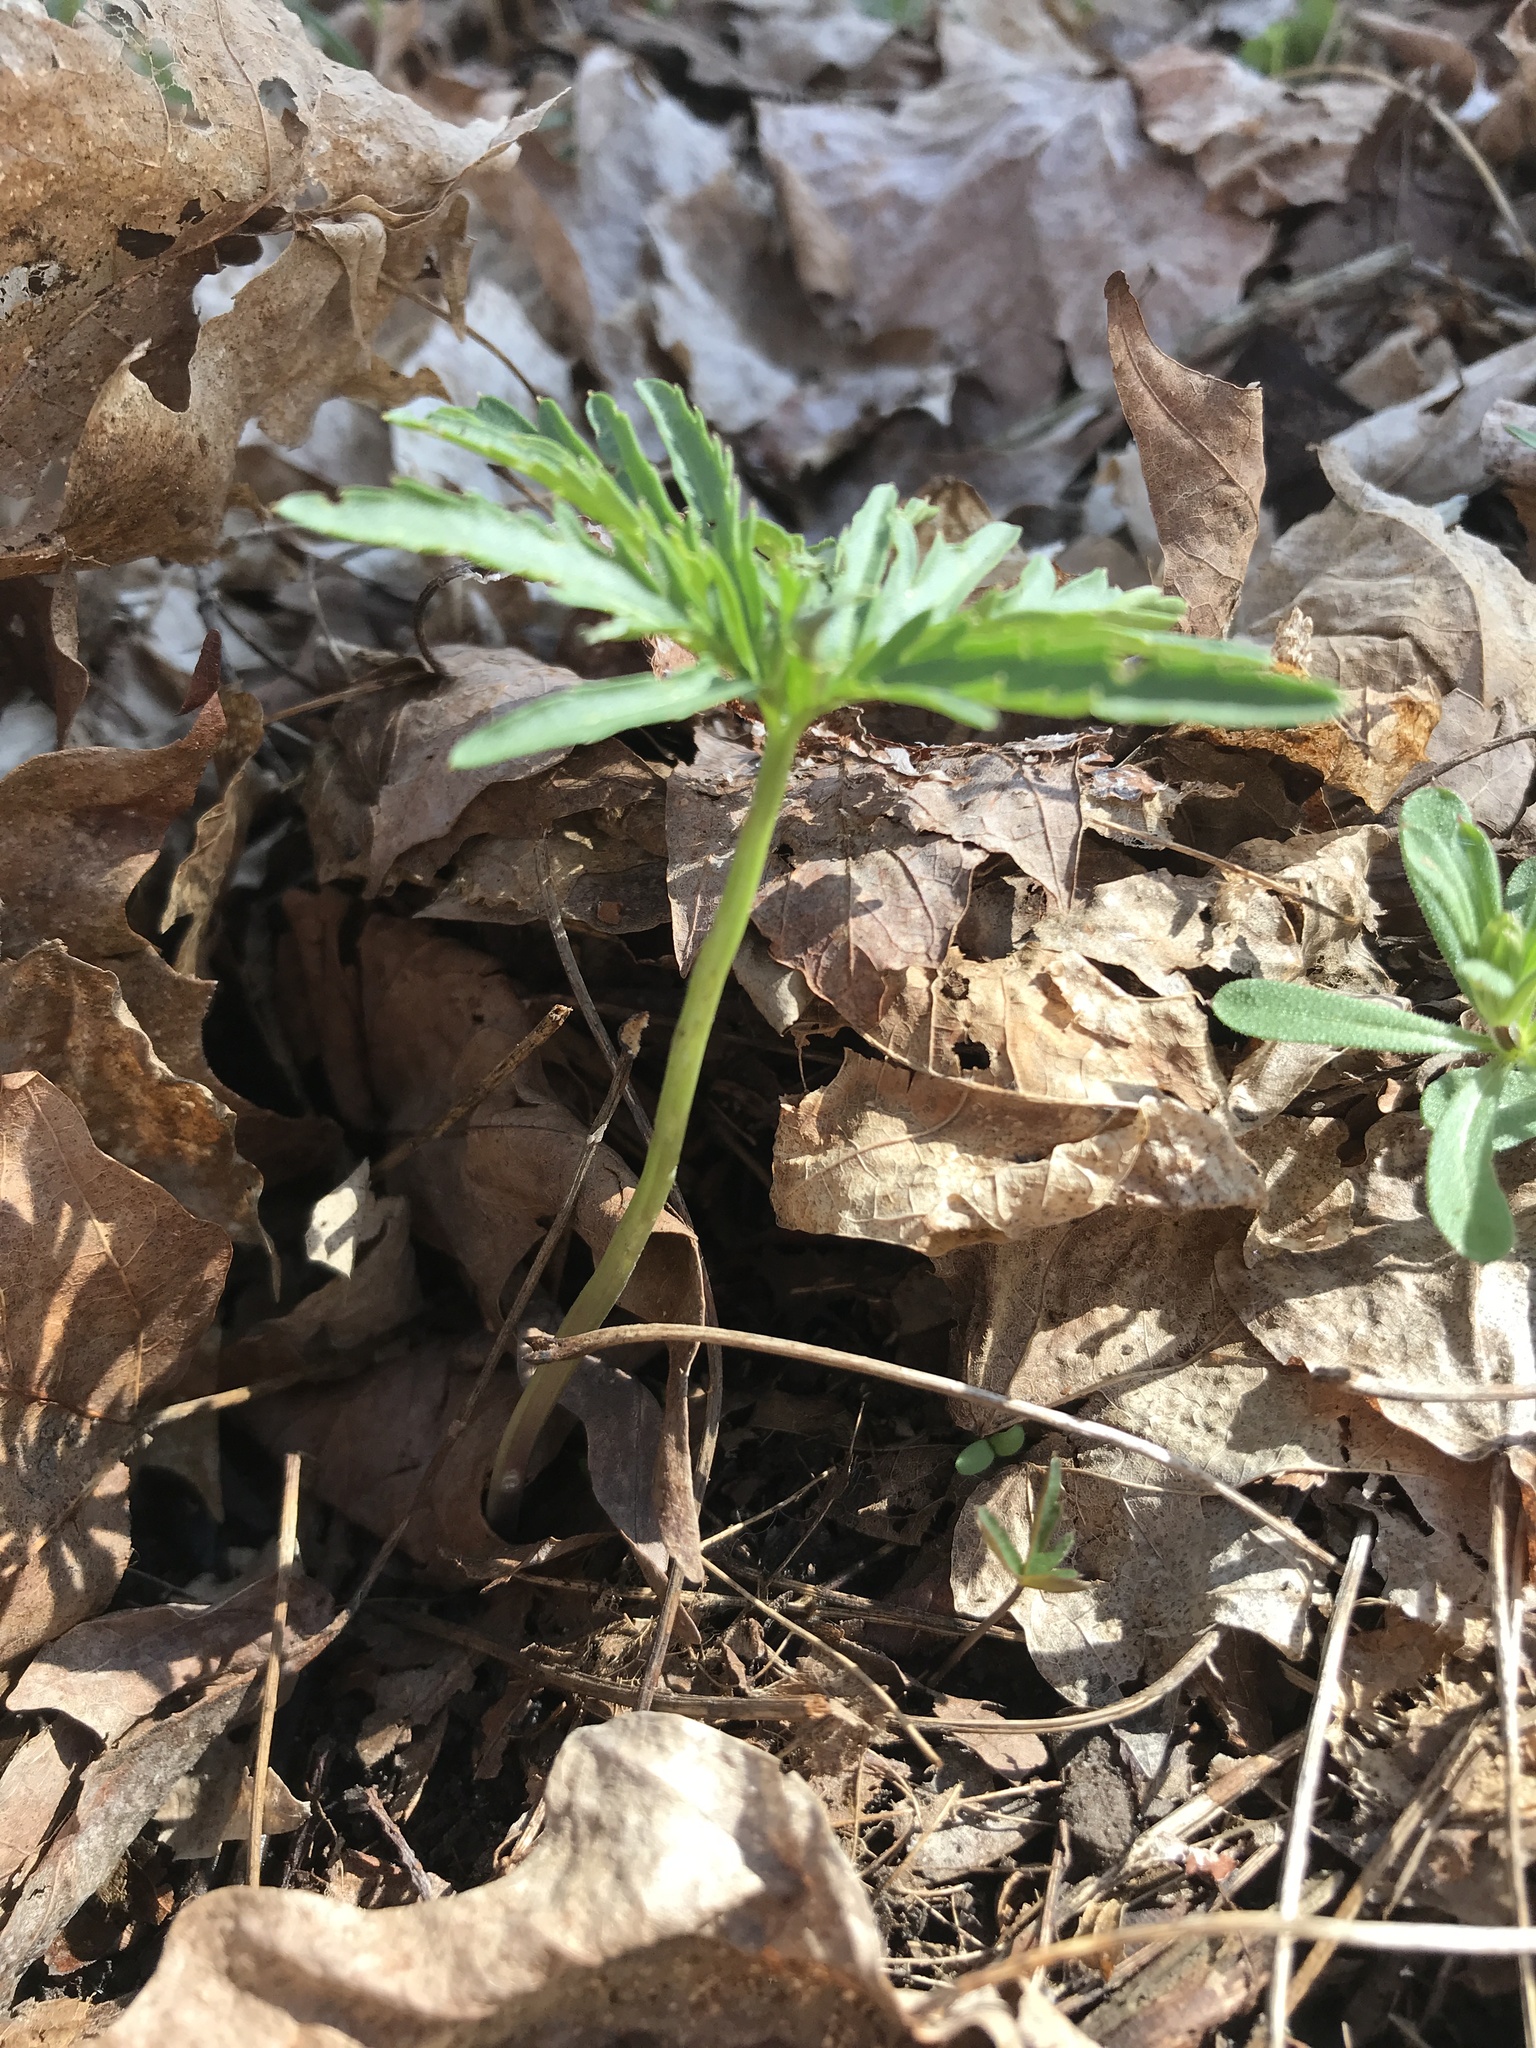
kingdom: Plantae
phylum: Tracheophyta
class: Magnoliopsida
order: Brassicales
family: Brassicaceae
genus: Cardamine
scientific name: Cardamine concatenata
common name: Cut-leaf toothcup
